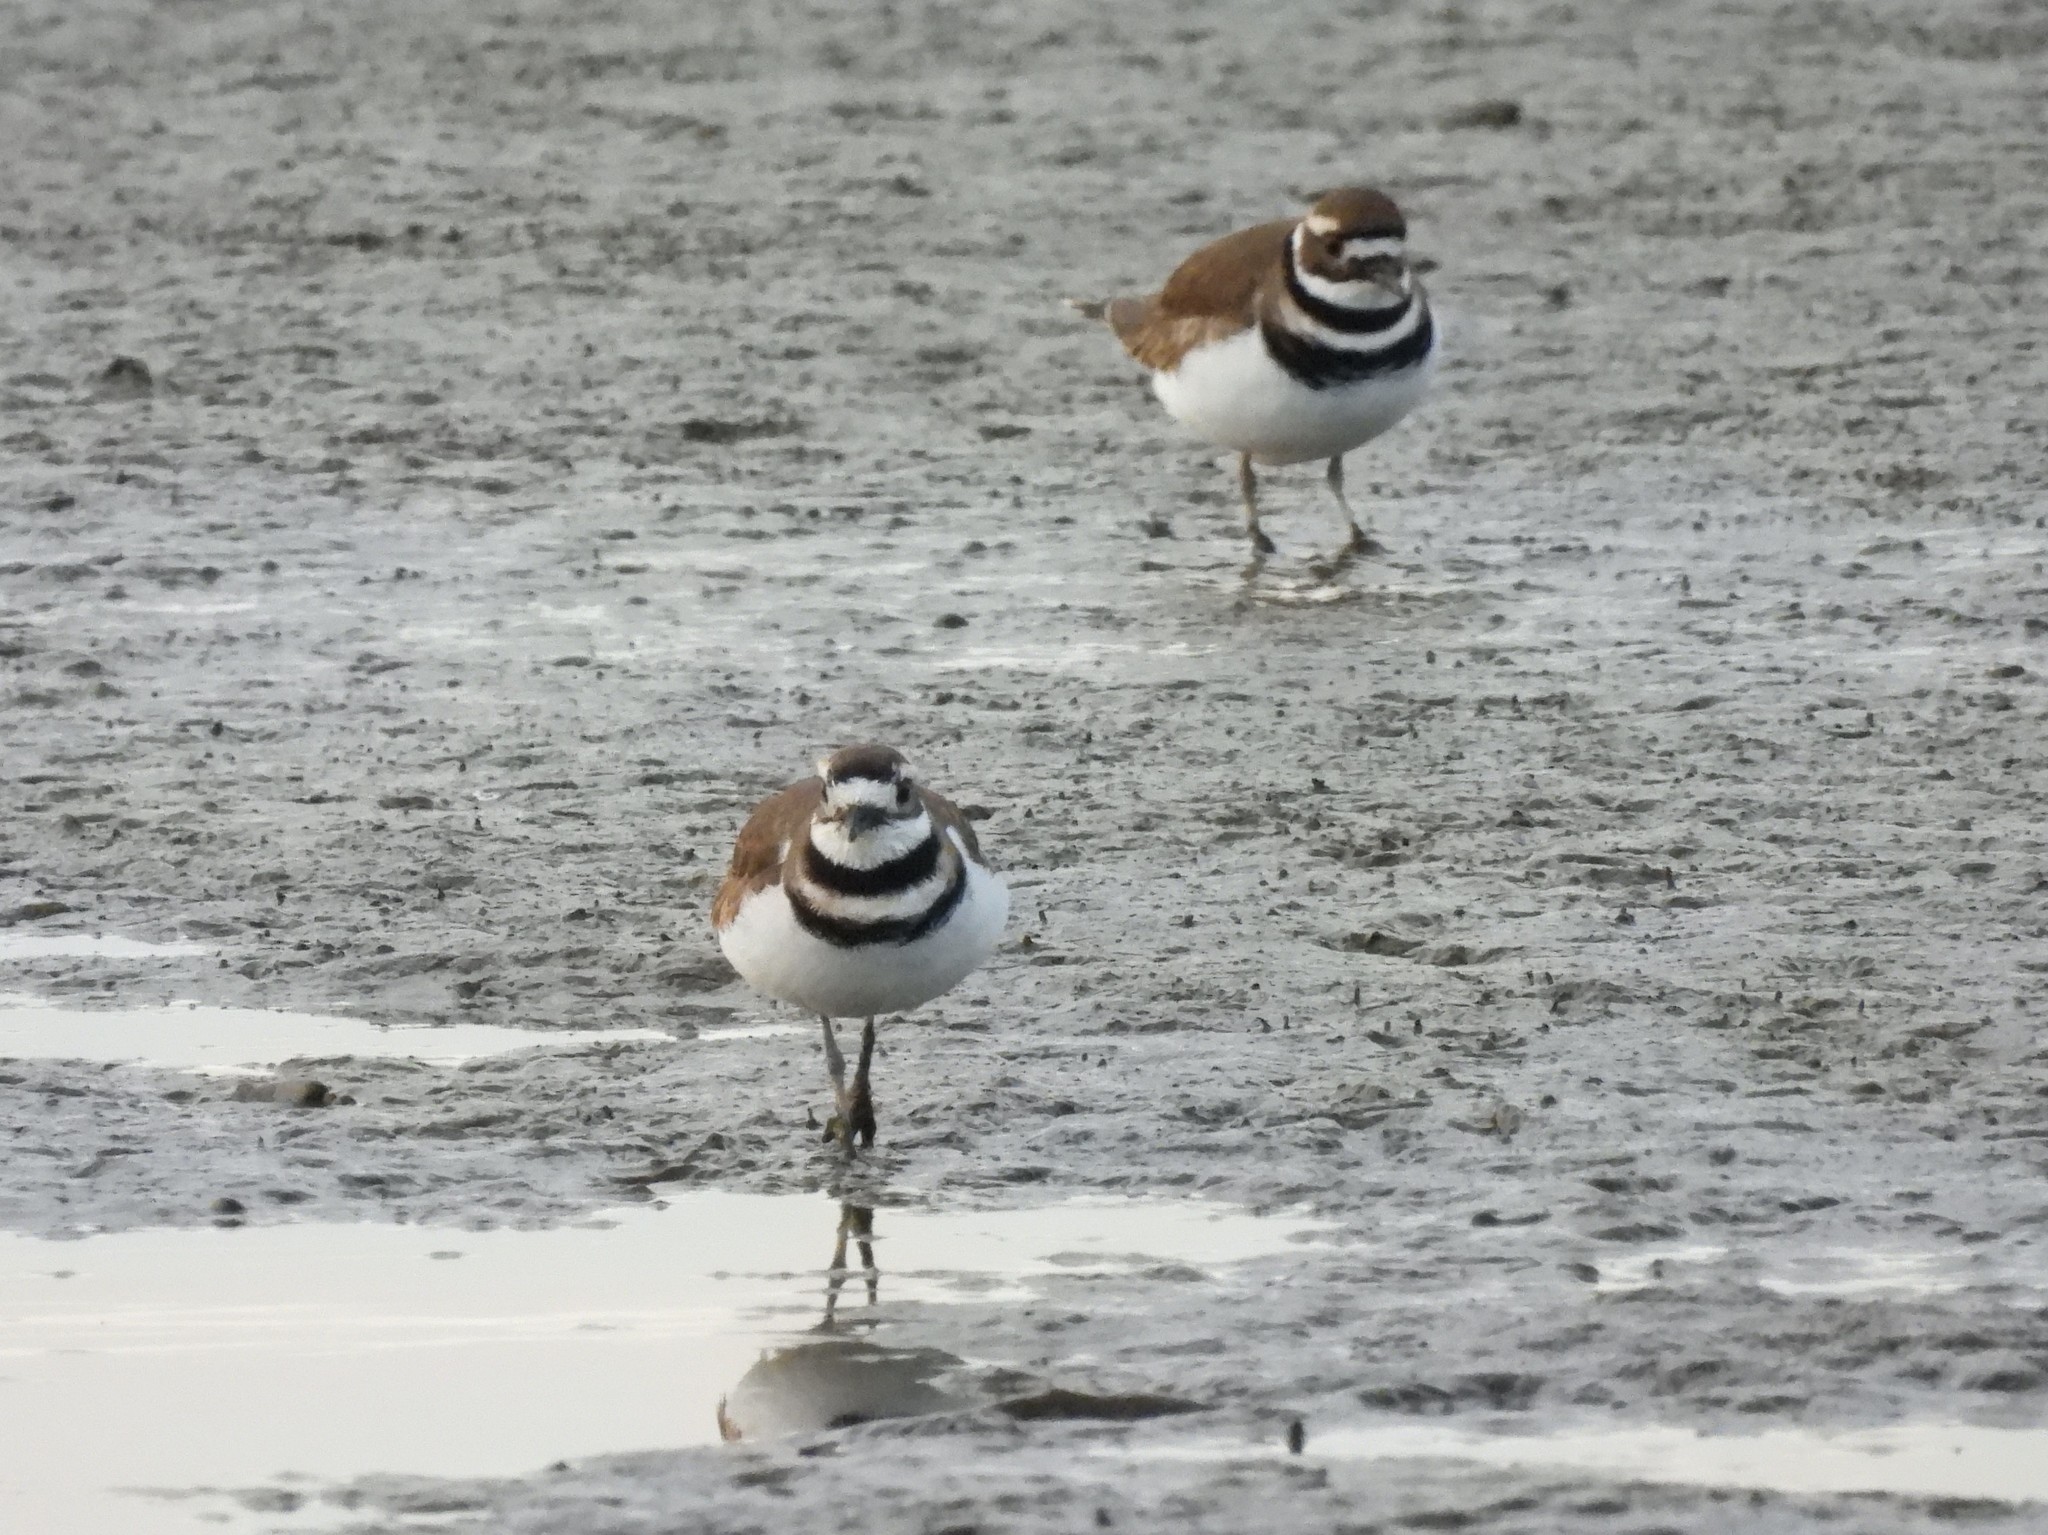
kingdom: Animalia
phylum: Chordata
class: Aves
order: Charadriiformes
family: Charadriidae
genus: Charadrius
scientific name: Charadrius vociferus
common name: Killdeer
